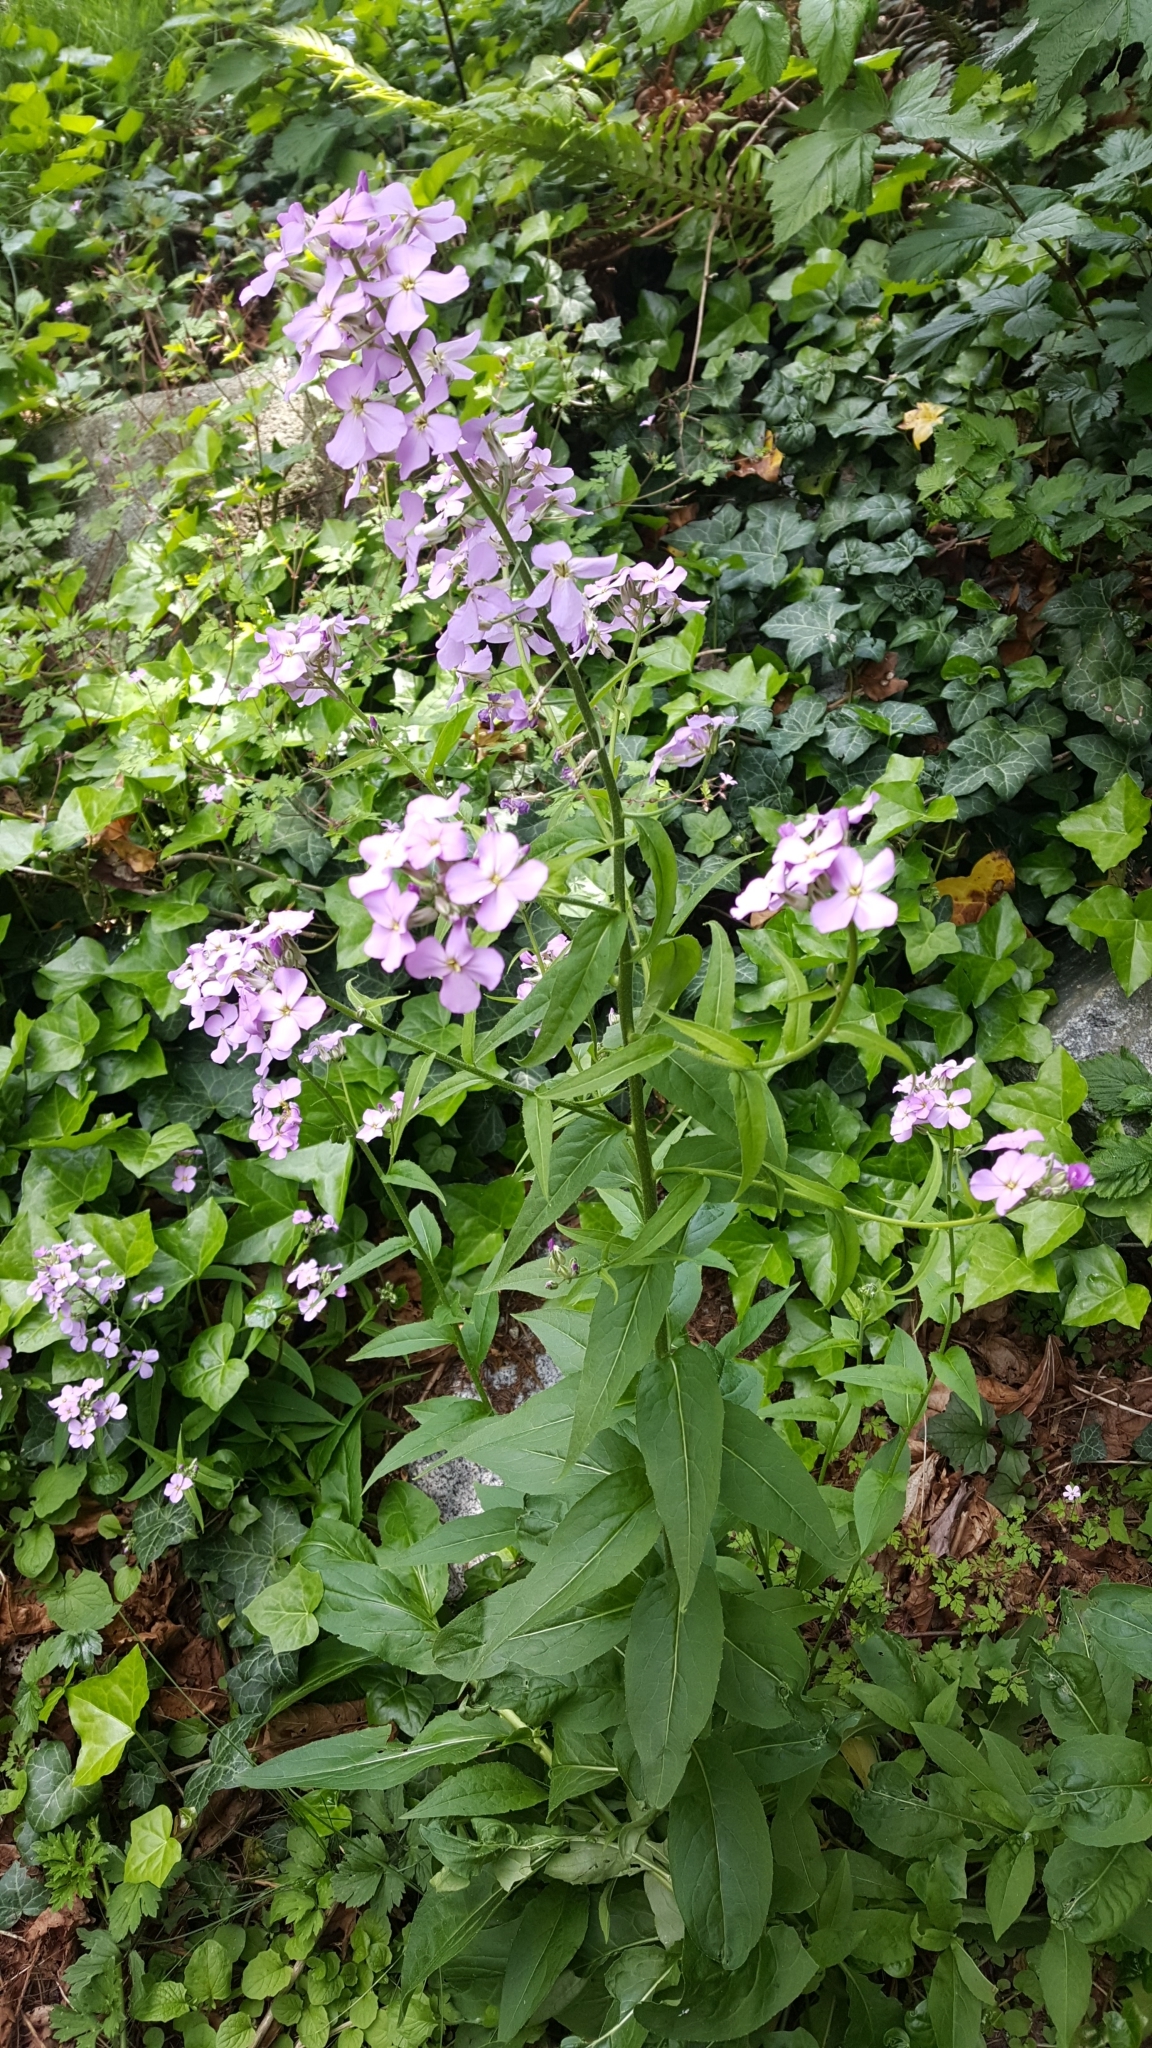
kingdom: Plantae
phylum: Tracheophyta
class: Magnoliopsida
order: Brassicales
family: Brassicaceae
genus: Hesperis
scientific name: Hesperis matronalis
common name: Dame's-violet
